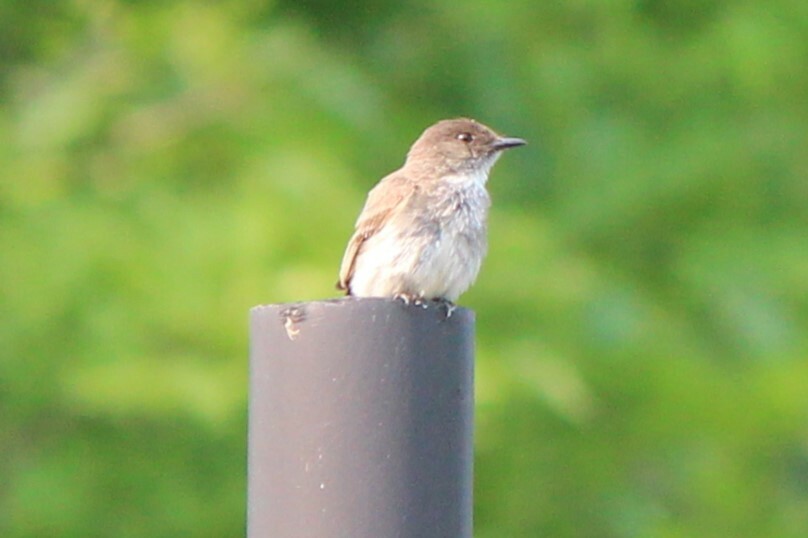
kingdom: Animalia
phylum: Chordata
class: Aves
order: Passeriformes
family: Tyrannidae
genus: Sayornis
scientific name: Sayornis phoebe
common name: Eastern phoebe
